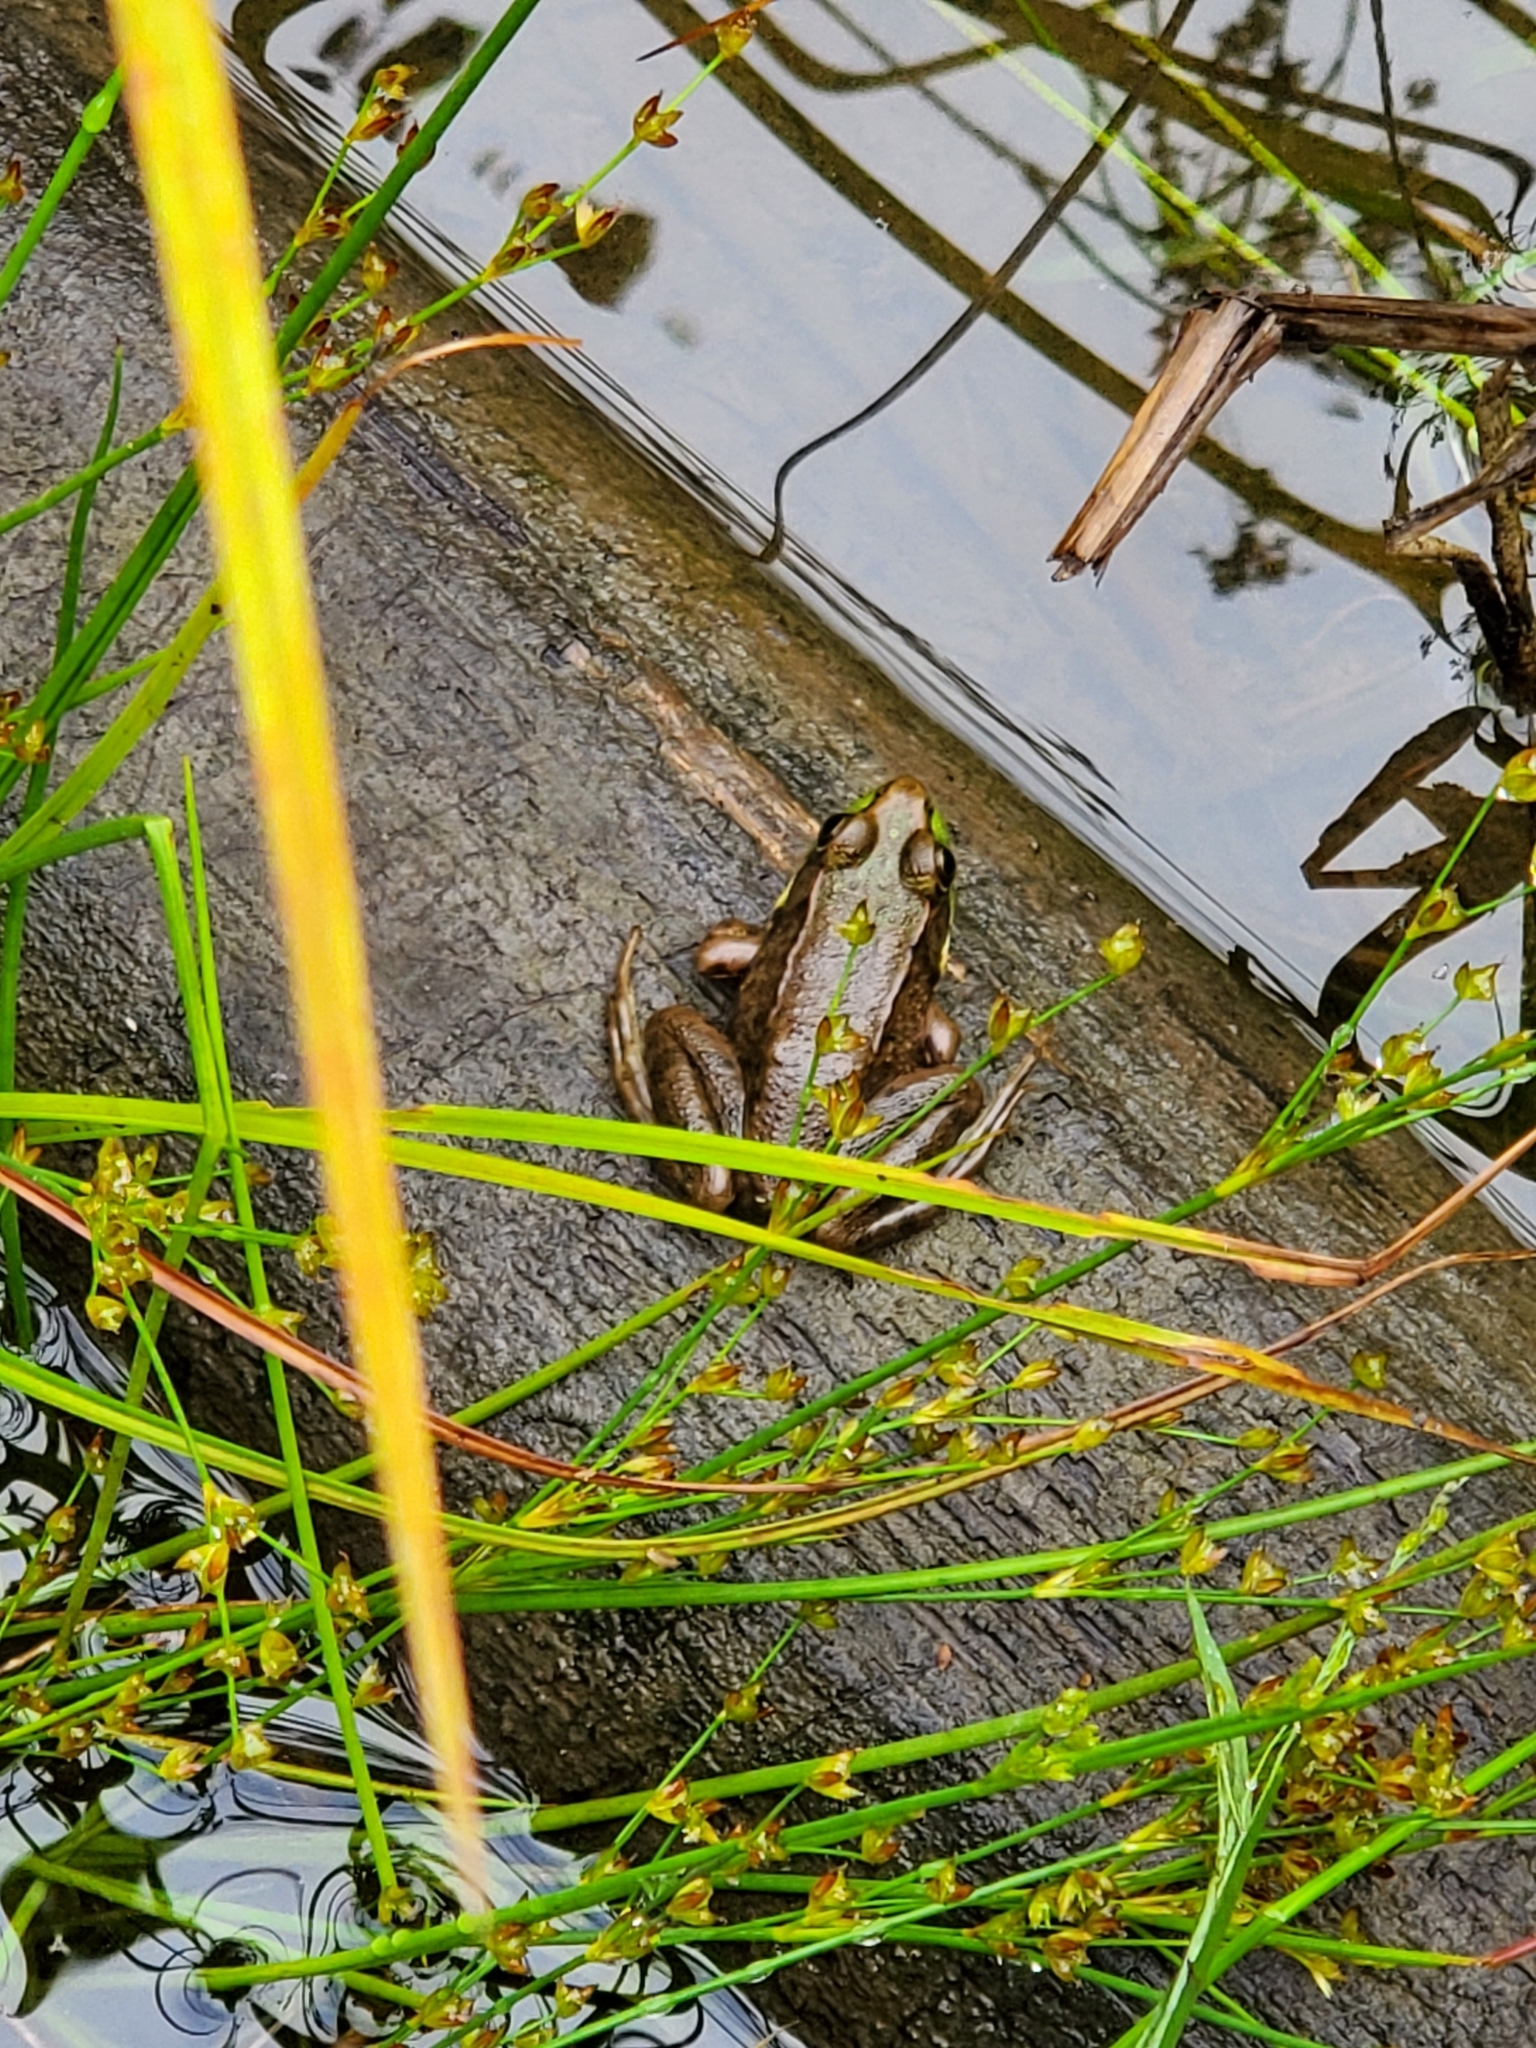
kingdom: Animalia
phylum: Chordata
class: Amphibia
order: Anura
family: Ranidae
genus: Lithobates
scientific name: Lithobates clamitans
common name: Green frog
